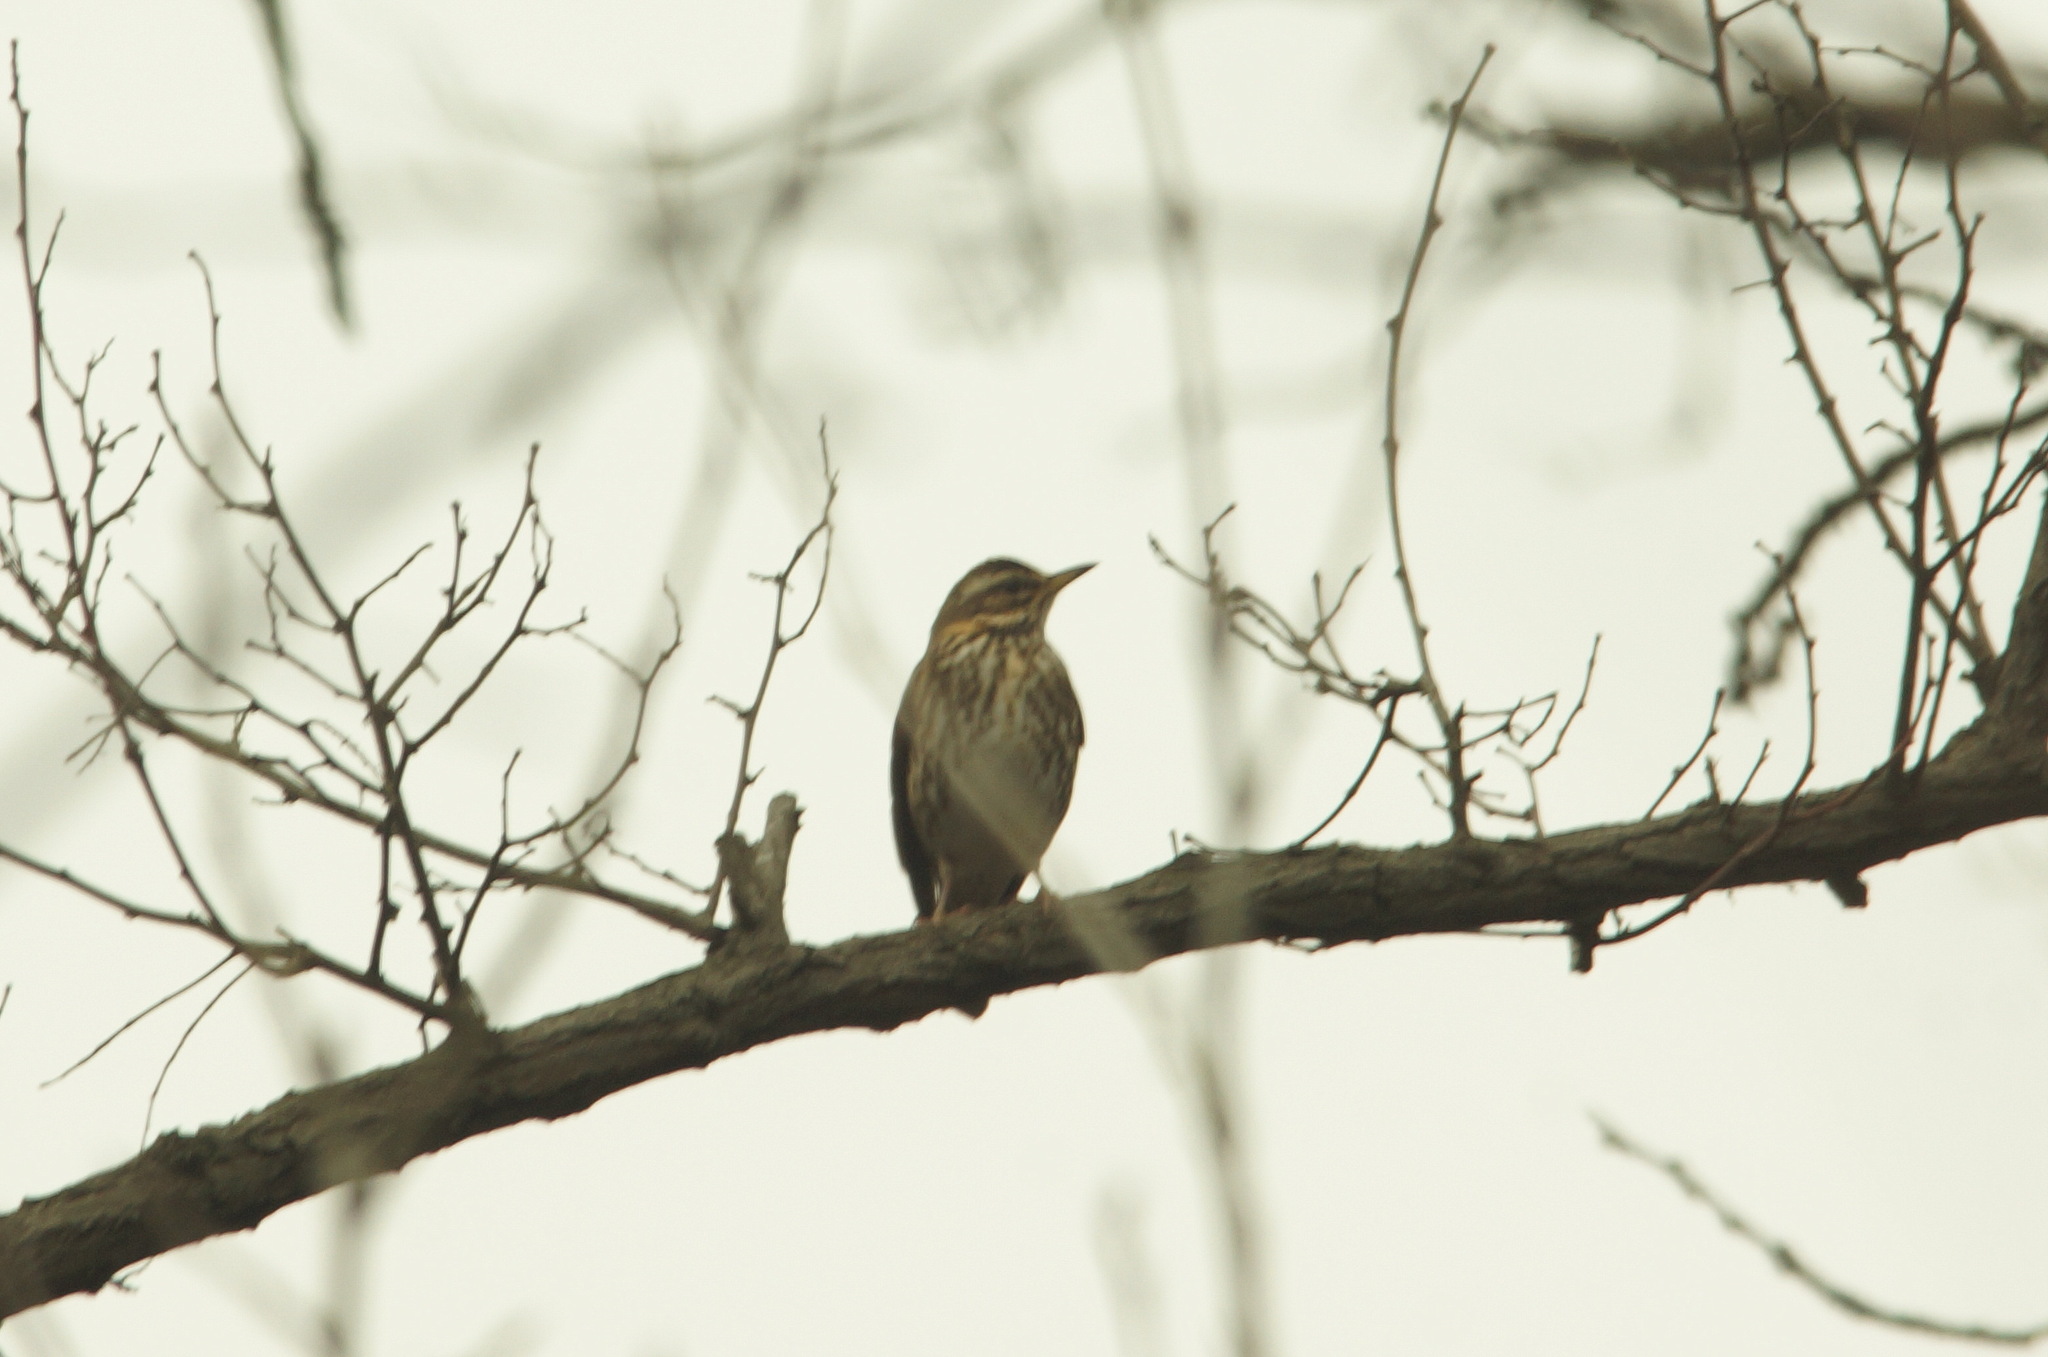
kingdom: Animalia
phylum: Chordata
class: Aves
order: Passeriformes
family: Turdidae
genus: Turdus
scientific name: Turdus iliacus
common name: Redwing
